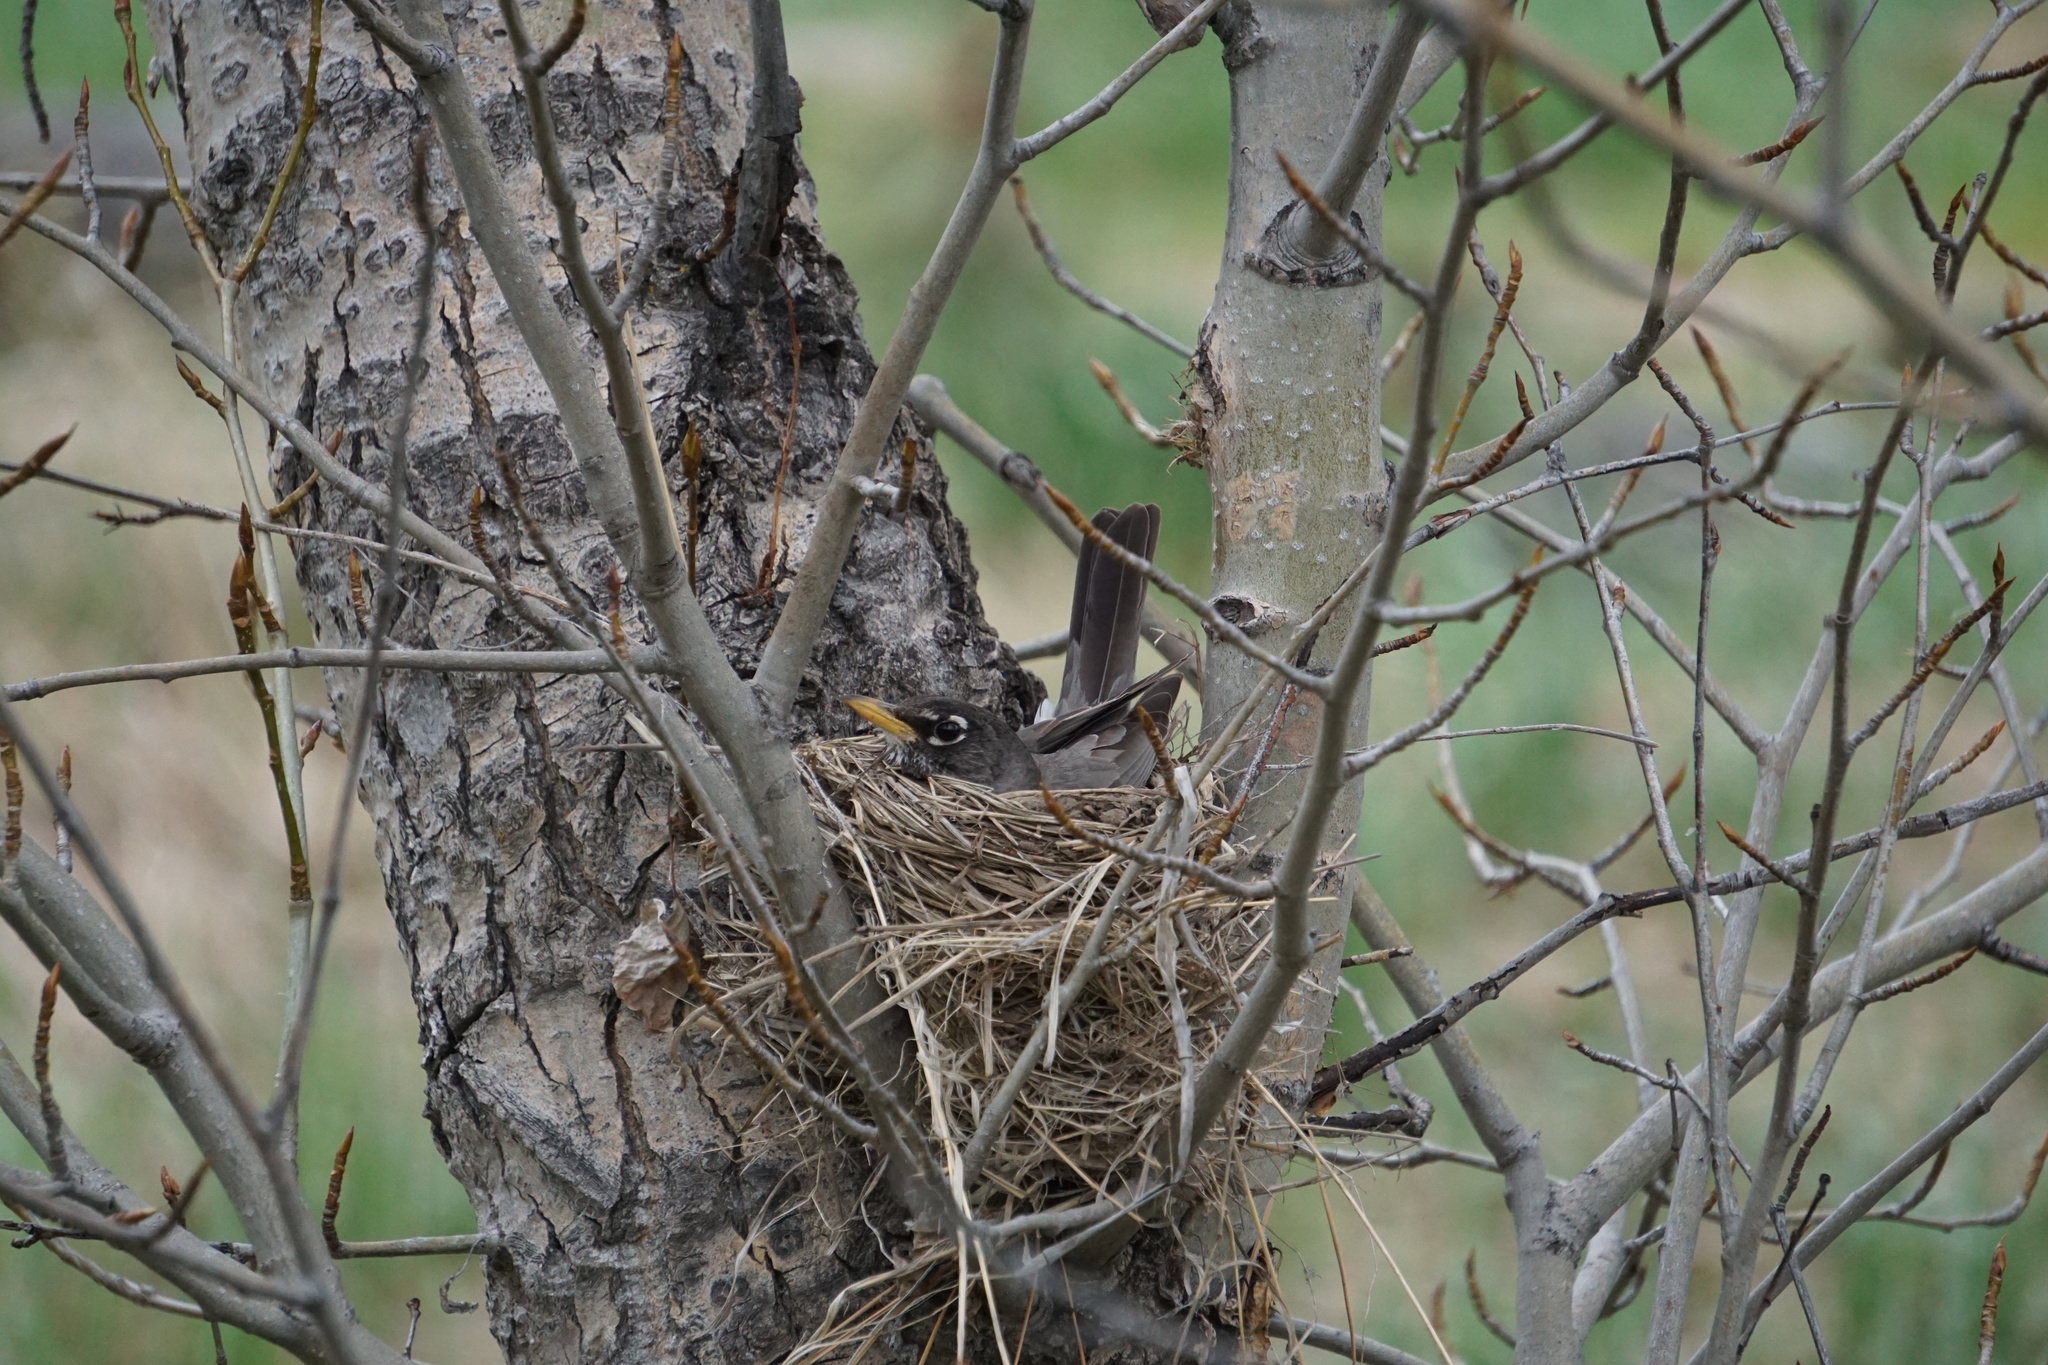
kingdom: Animalia
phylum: Chordata
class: Aves
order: Passeriformes
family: Turdidae
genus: Turdus
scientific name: Turdus migratorius
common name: American robin
